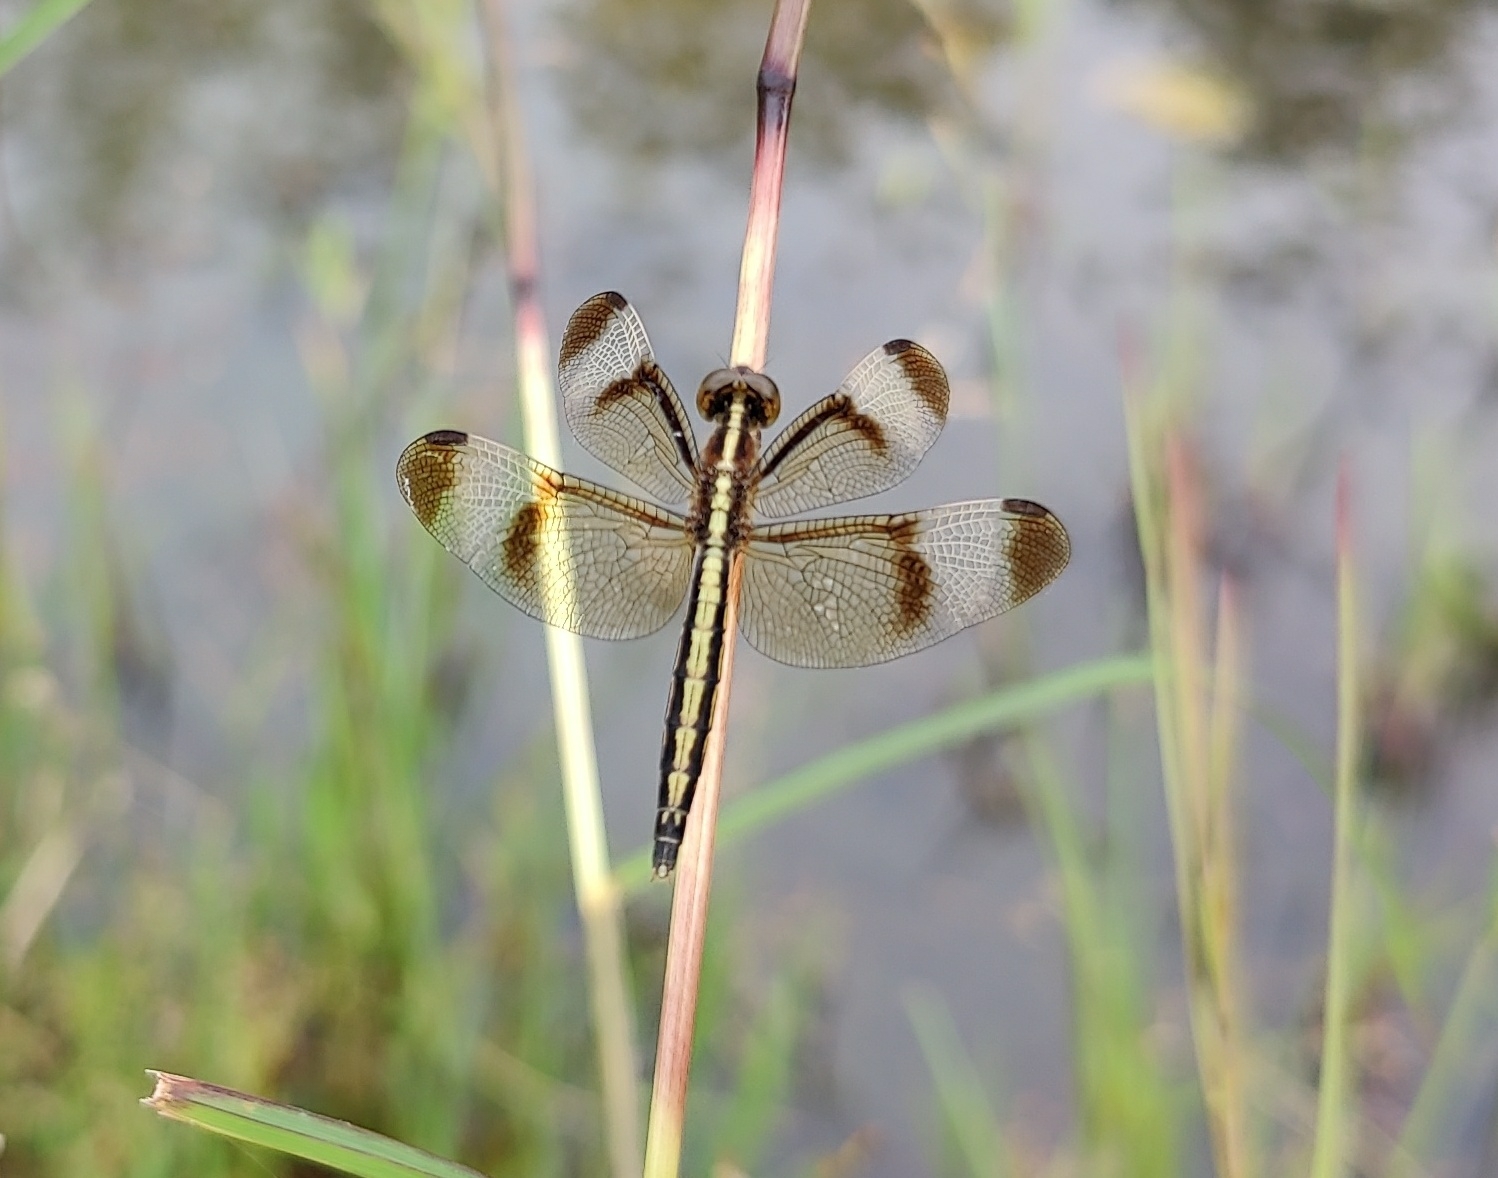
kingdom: Animalia
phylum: Arthropoda
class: Insecta
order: Odonata
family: Libellulidae
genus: Neurothemis
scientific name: Neurothemis tullia
